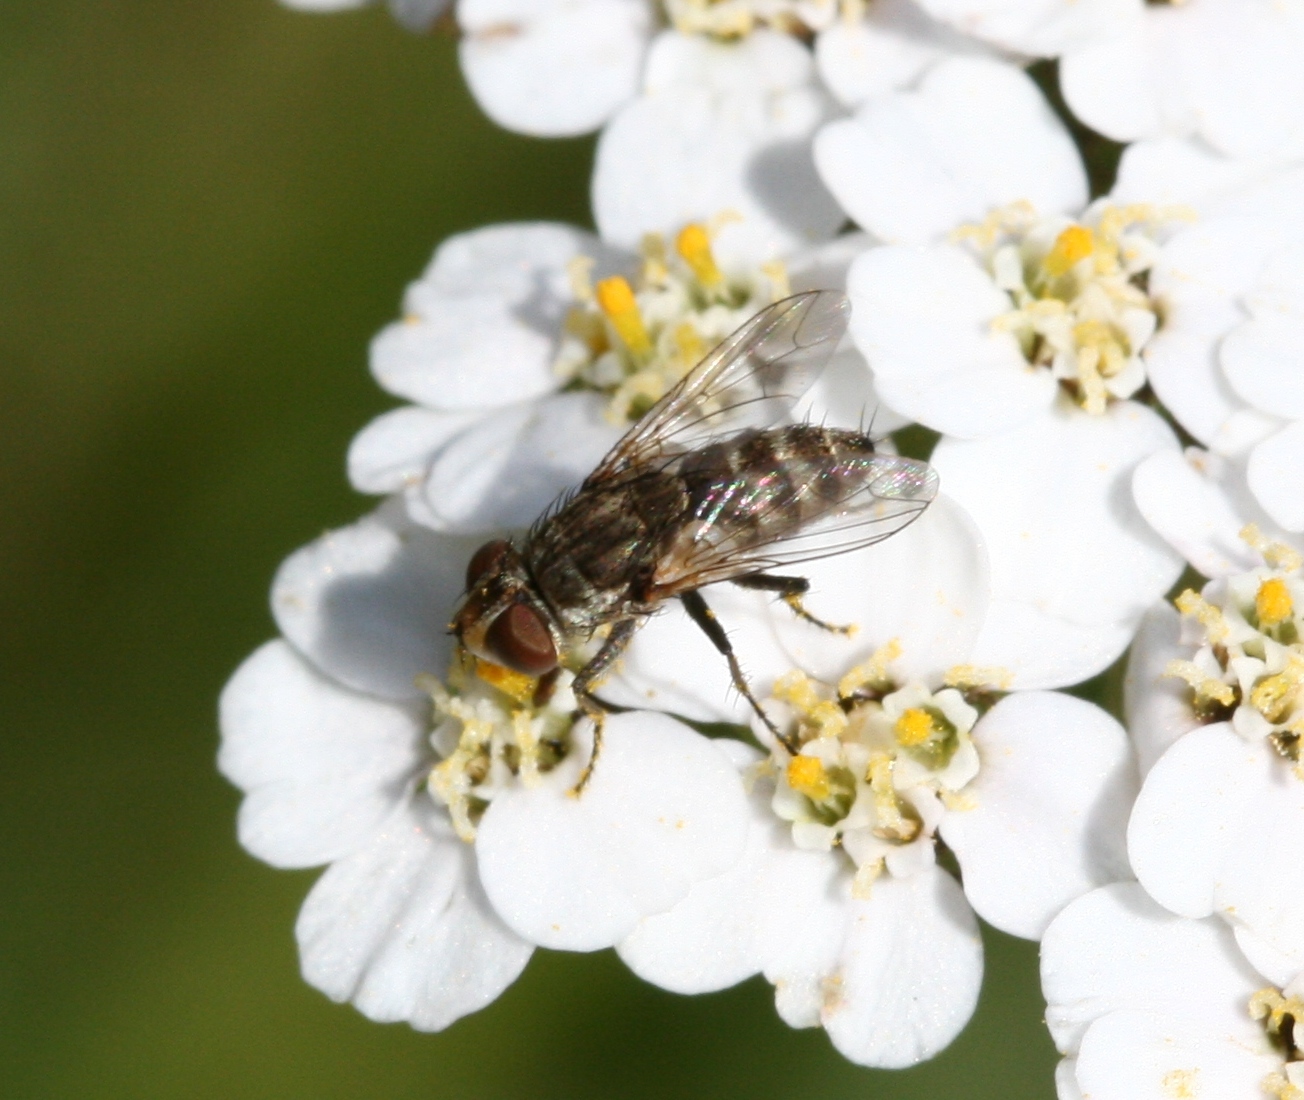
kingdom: Animalia
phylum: Arthropoda
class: Insecta
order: Diptera
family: Sarcophagidae
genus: Senotainia
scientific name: Senotainia conica
